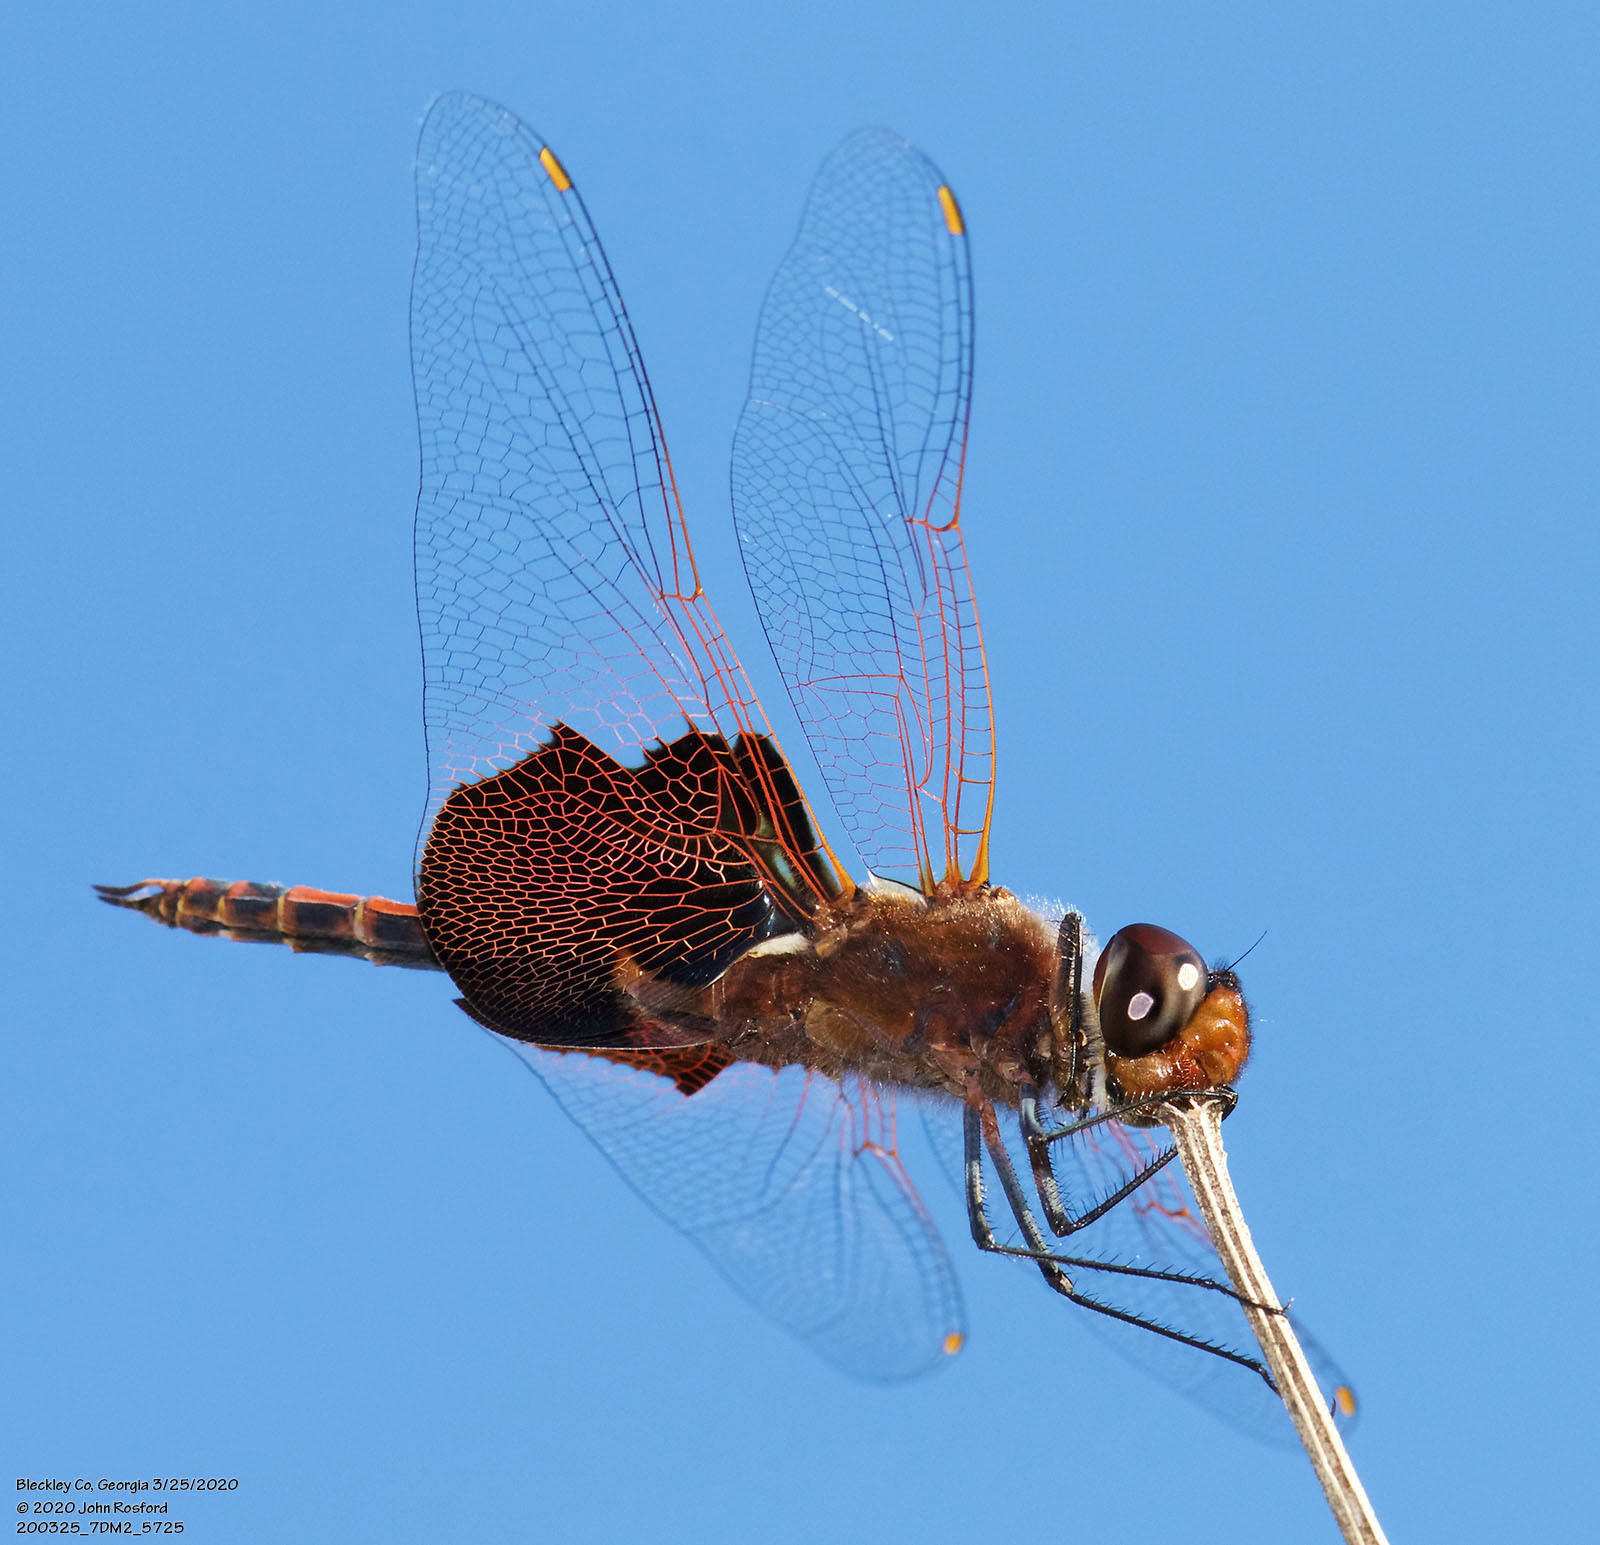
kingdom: Animalia
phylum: Arthropoda
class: Insecta
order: Odonata
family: Libellulidae
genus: Tramea
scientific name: Tramea carolina
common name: Carolina saddlebags
